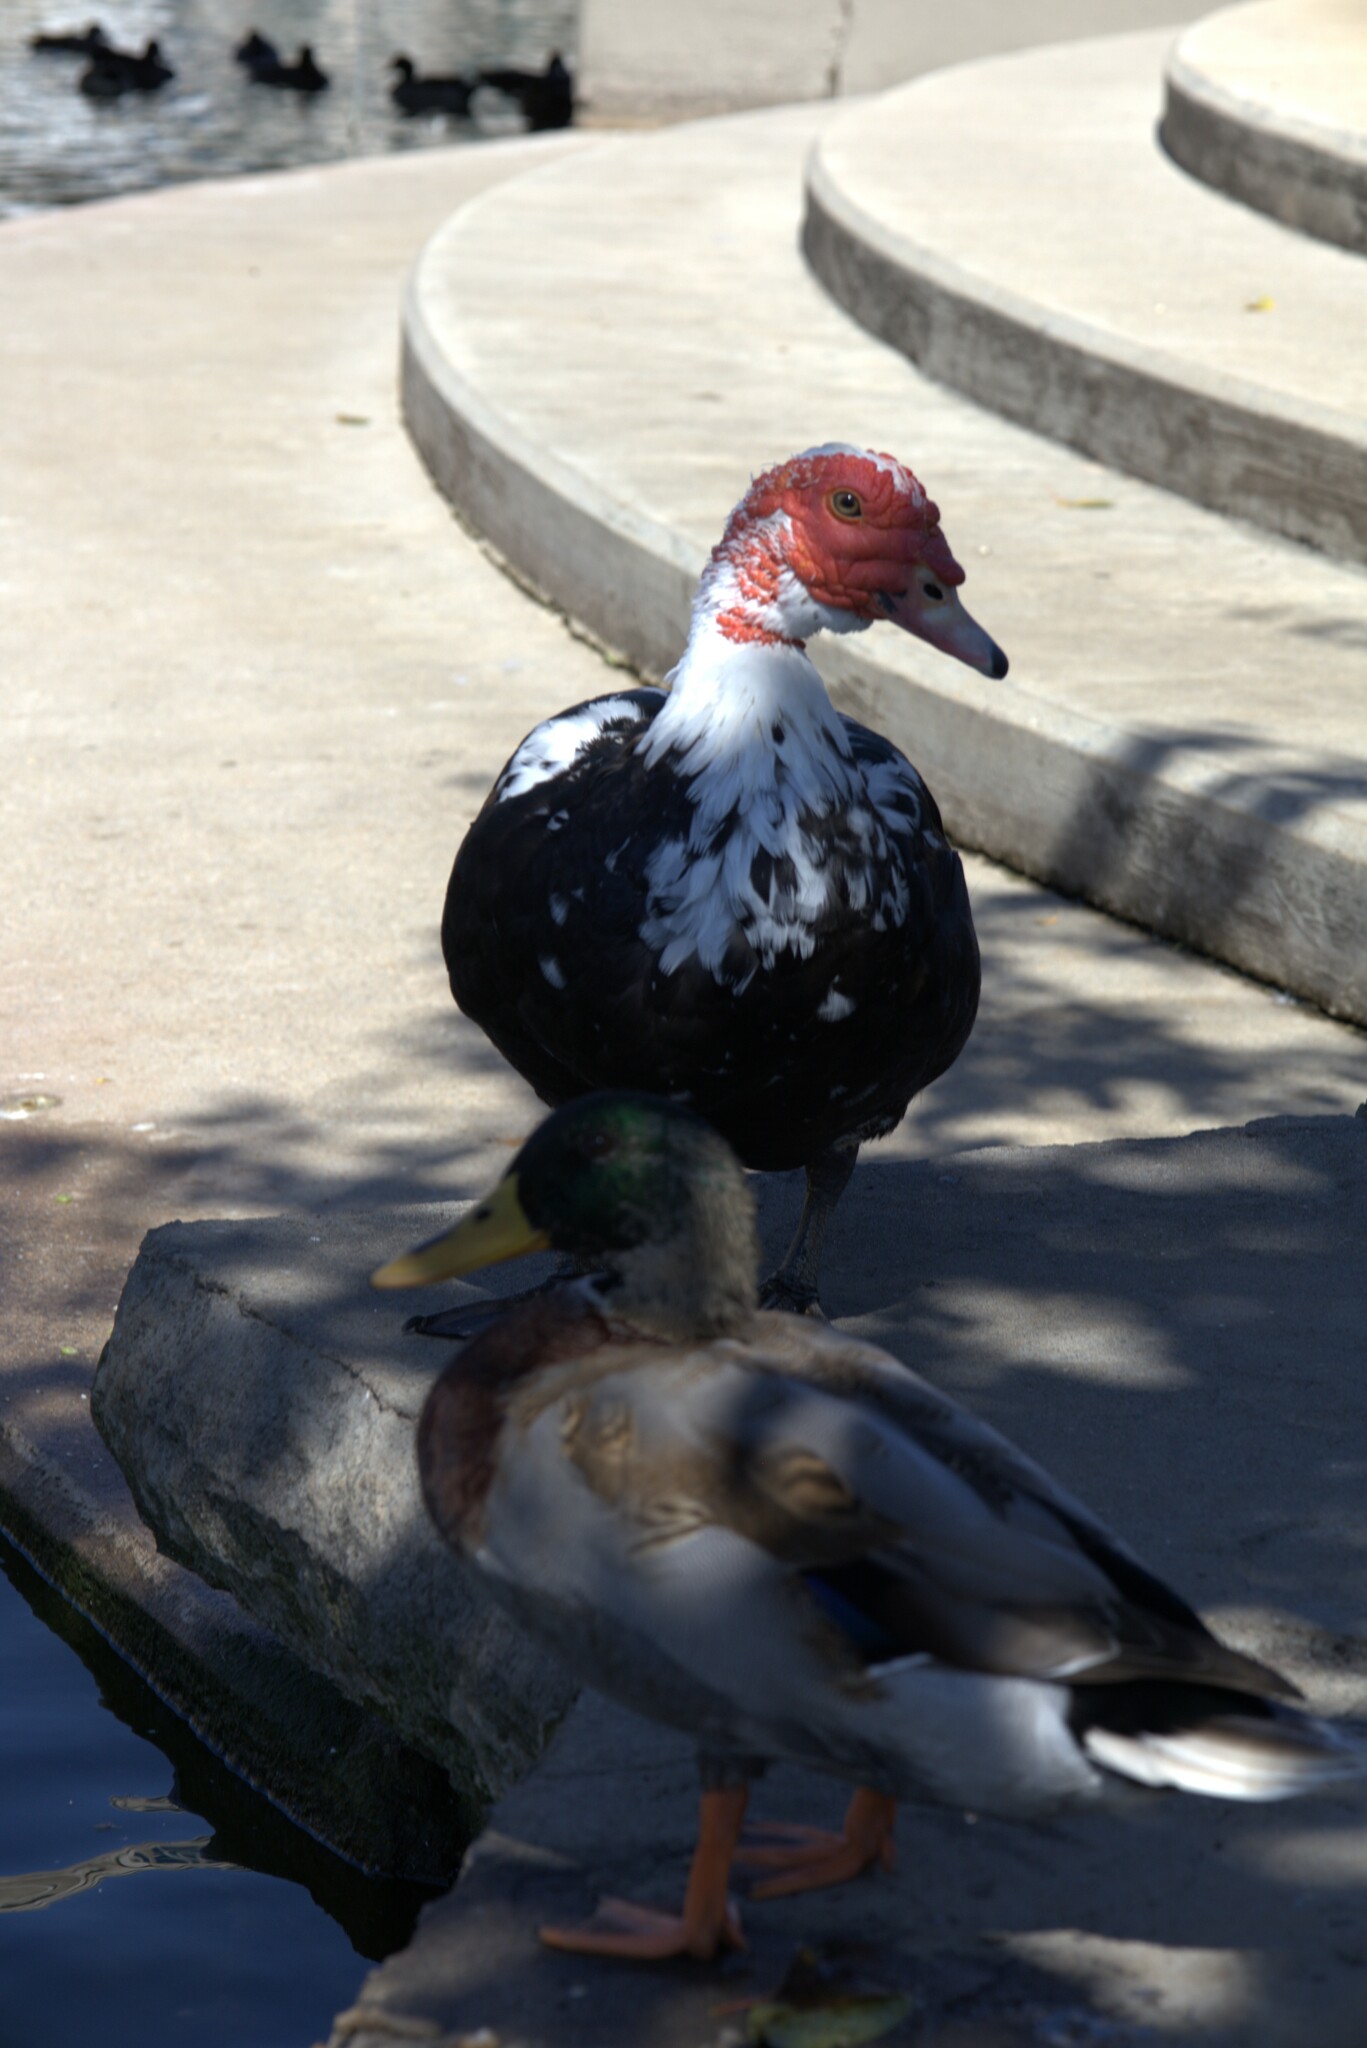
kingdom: Animalia
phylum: Chordata
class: Aves
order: Anseriformes
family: Anatidae
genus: Cairina
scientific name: Cairina moschata
